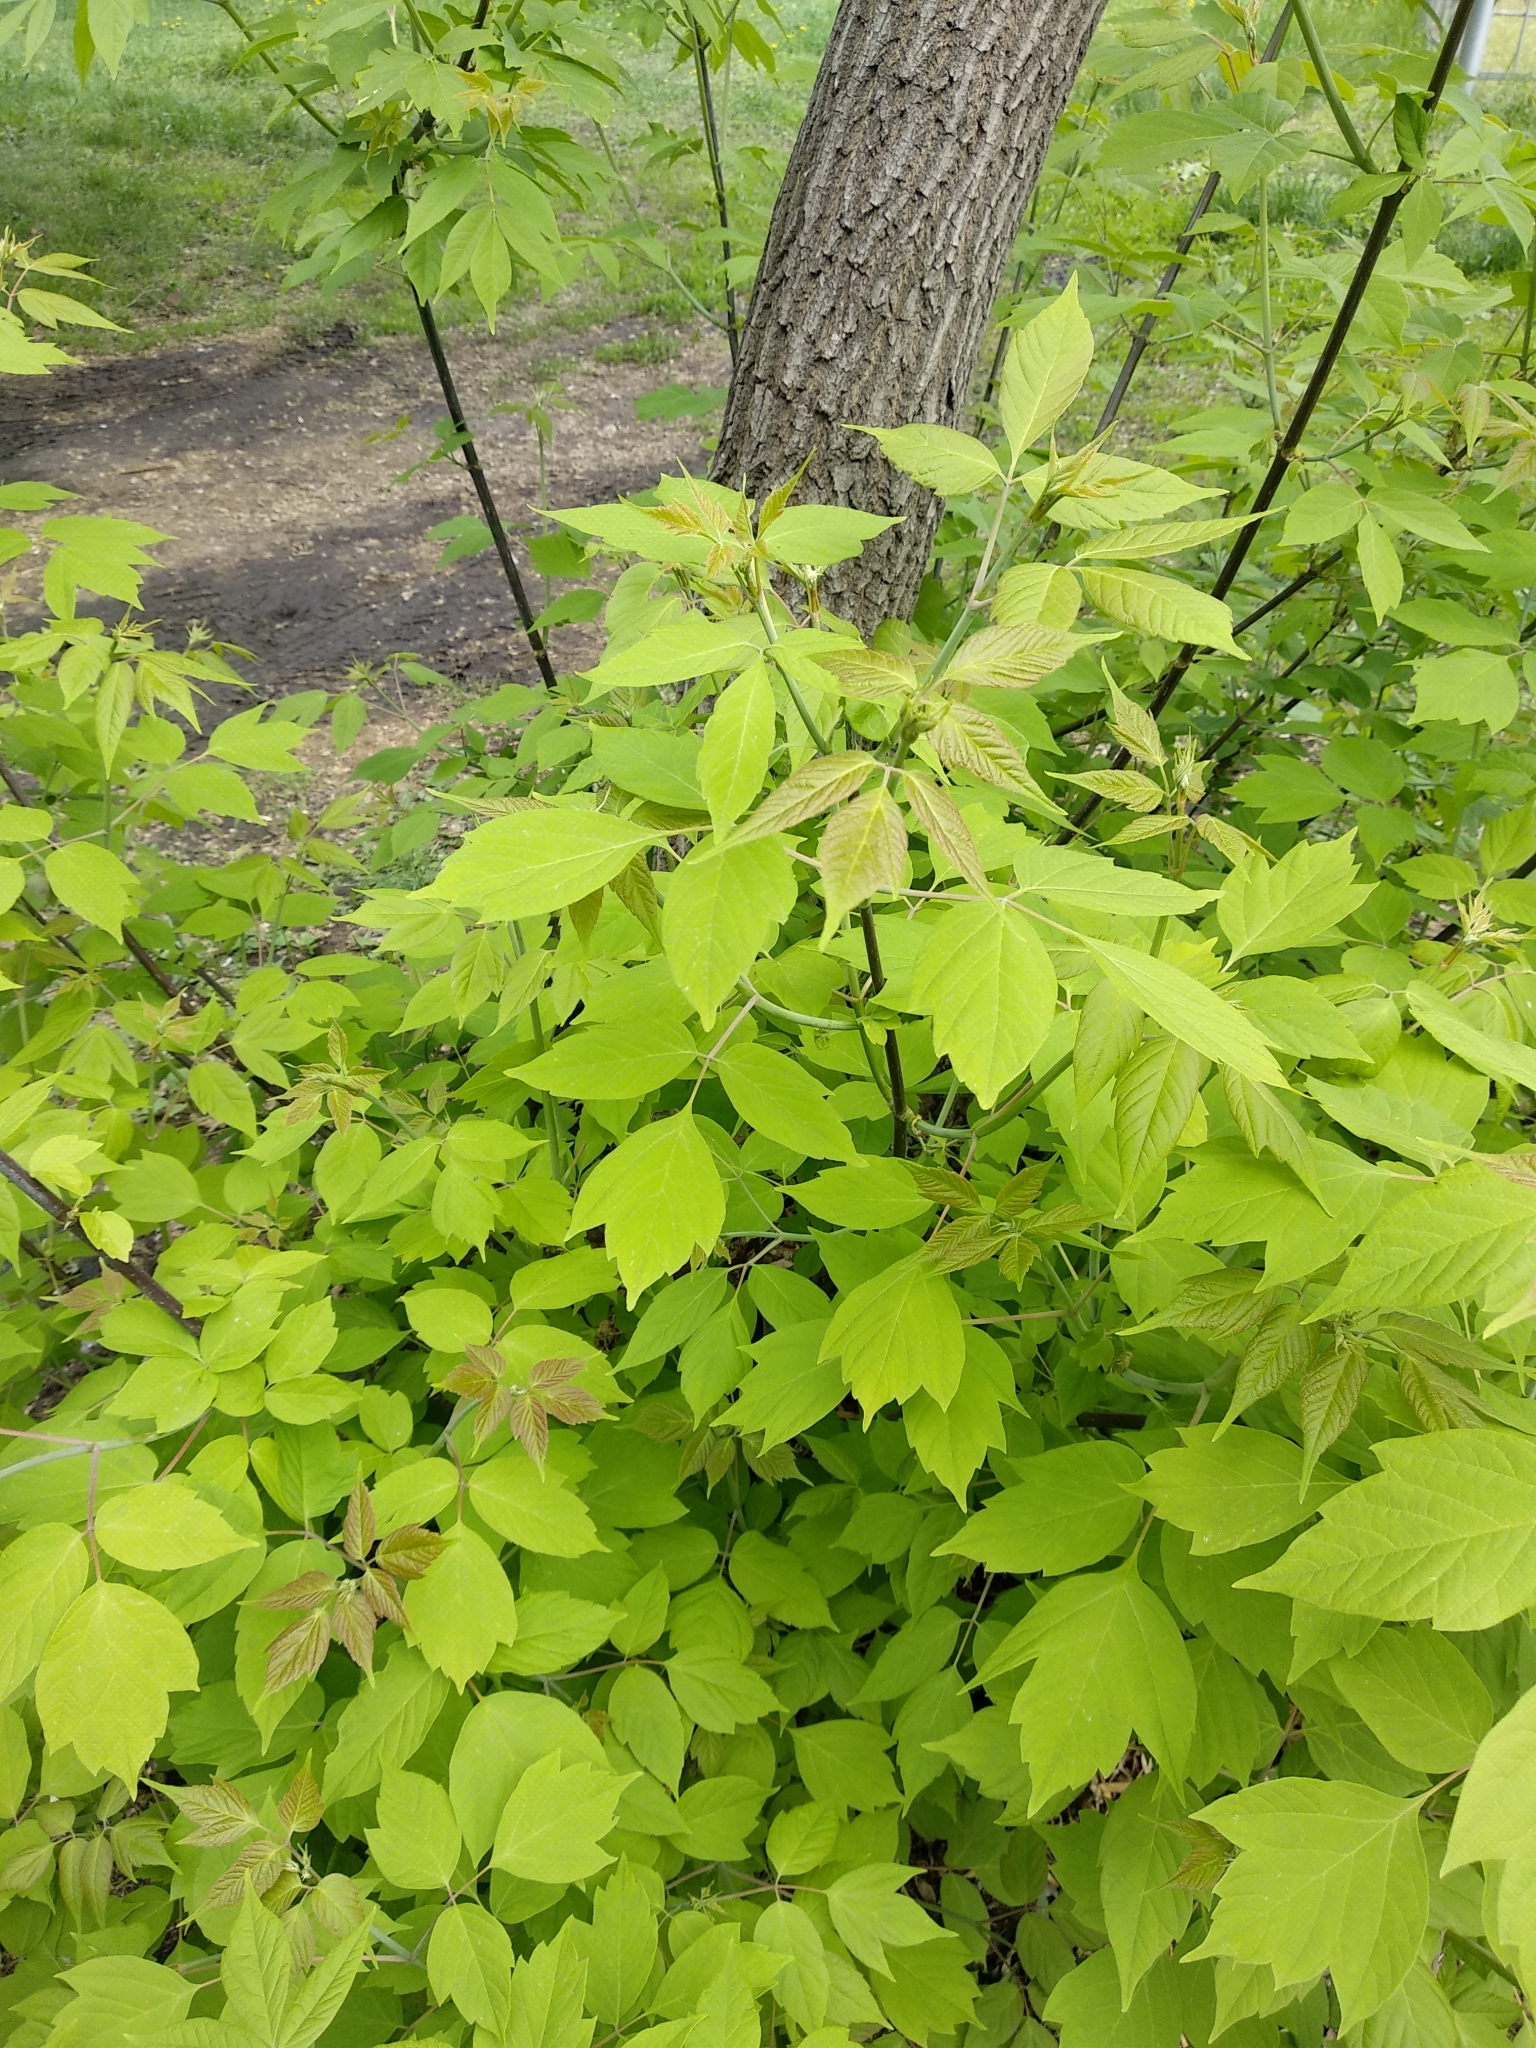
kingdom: Plantae
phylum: Tracheophyta
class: Magnoliopsida
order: Sapindales
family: Sapindaceae
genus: Acer
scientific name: Acer negundo
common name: Ashleaf maple
